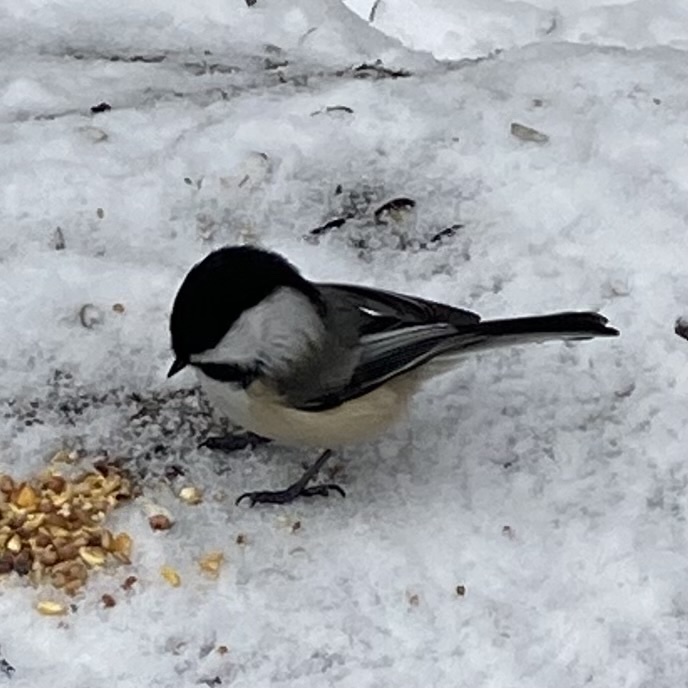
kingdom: Animalia
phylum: Chordata
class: Aves
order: Passeriformes
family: Paridae
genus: Poecile
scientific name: Poecile atricapillus
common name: Black-capped chickadee
